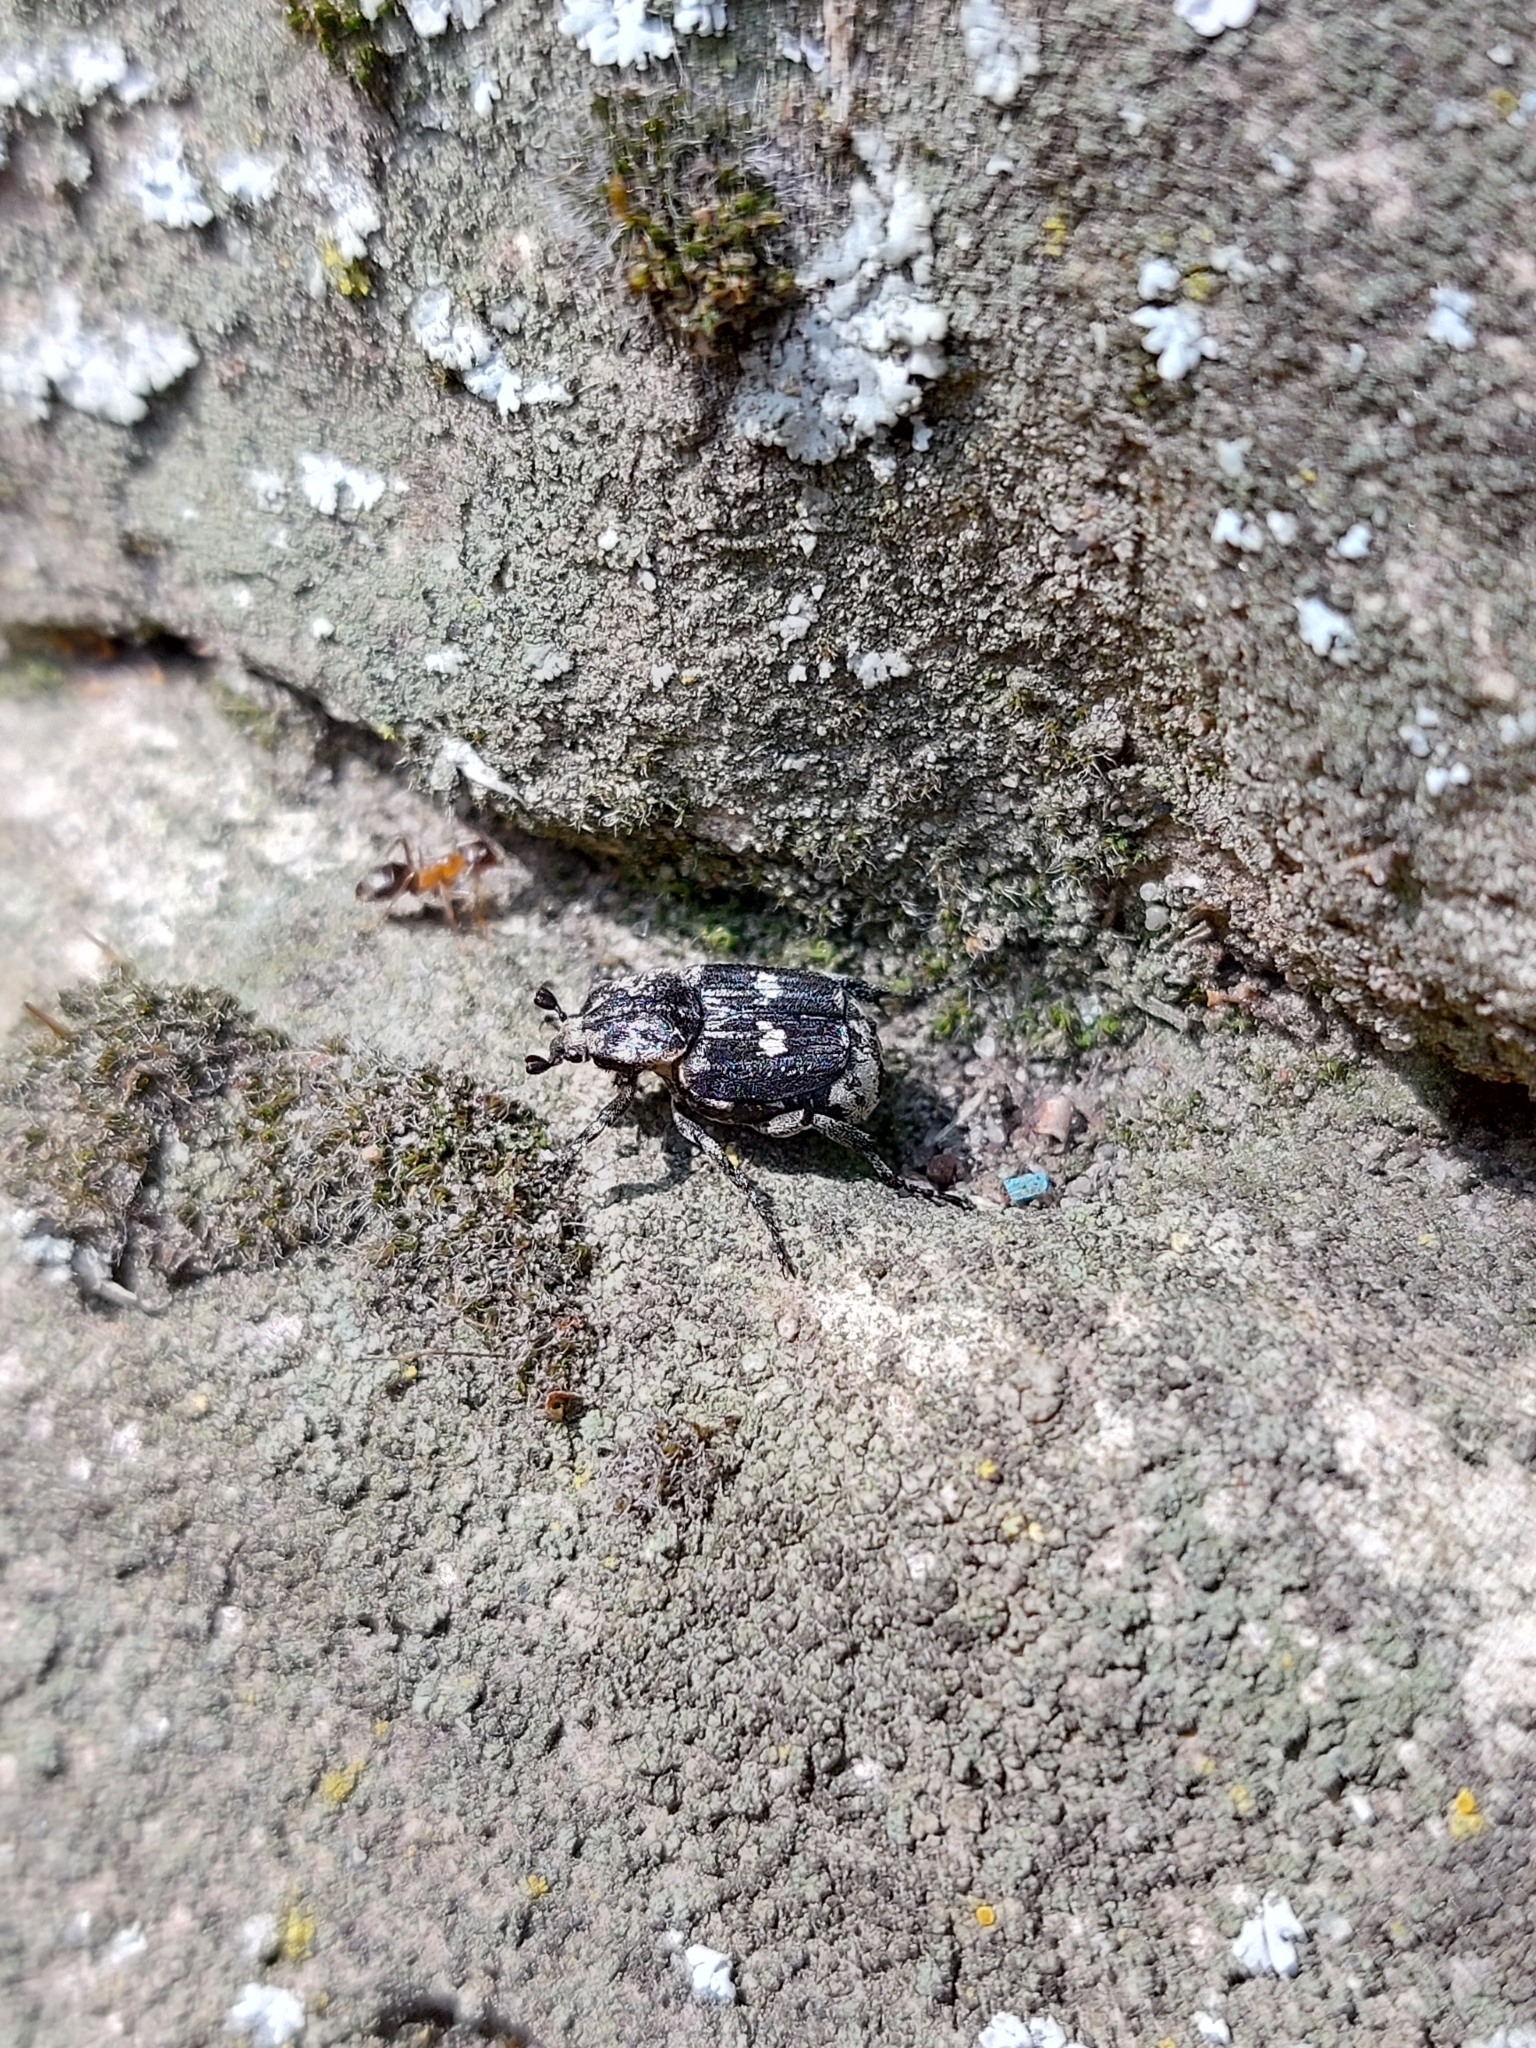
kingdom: Animalia
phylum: Arthropoda
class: Insecta
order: Coleoptera
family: Scarabaeidae
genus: Valgus
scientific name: Valgus hemipterus
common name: Bug flower chafer
